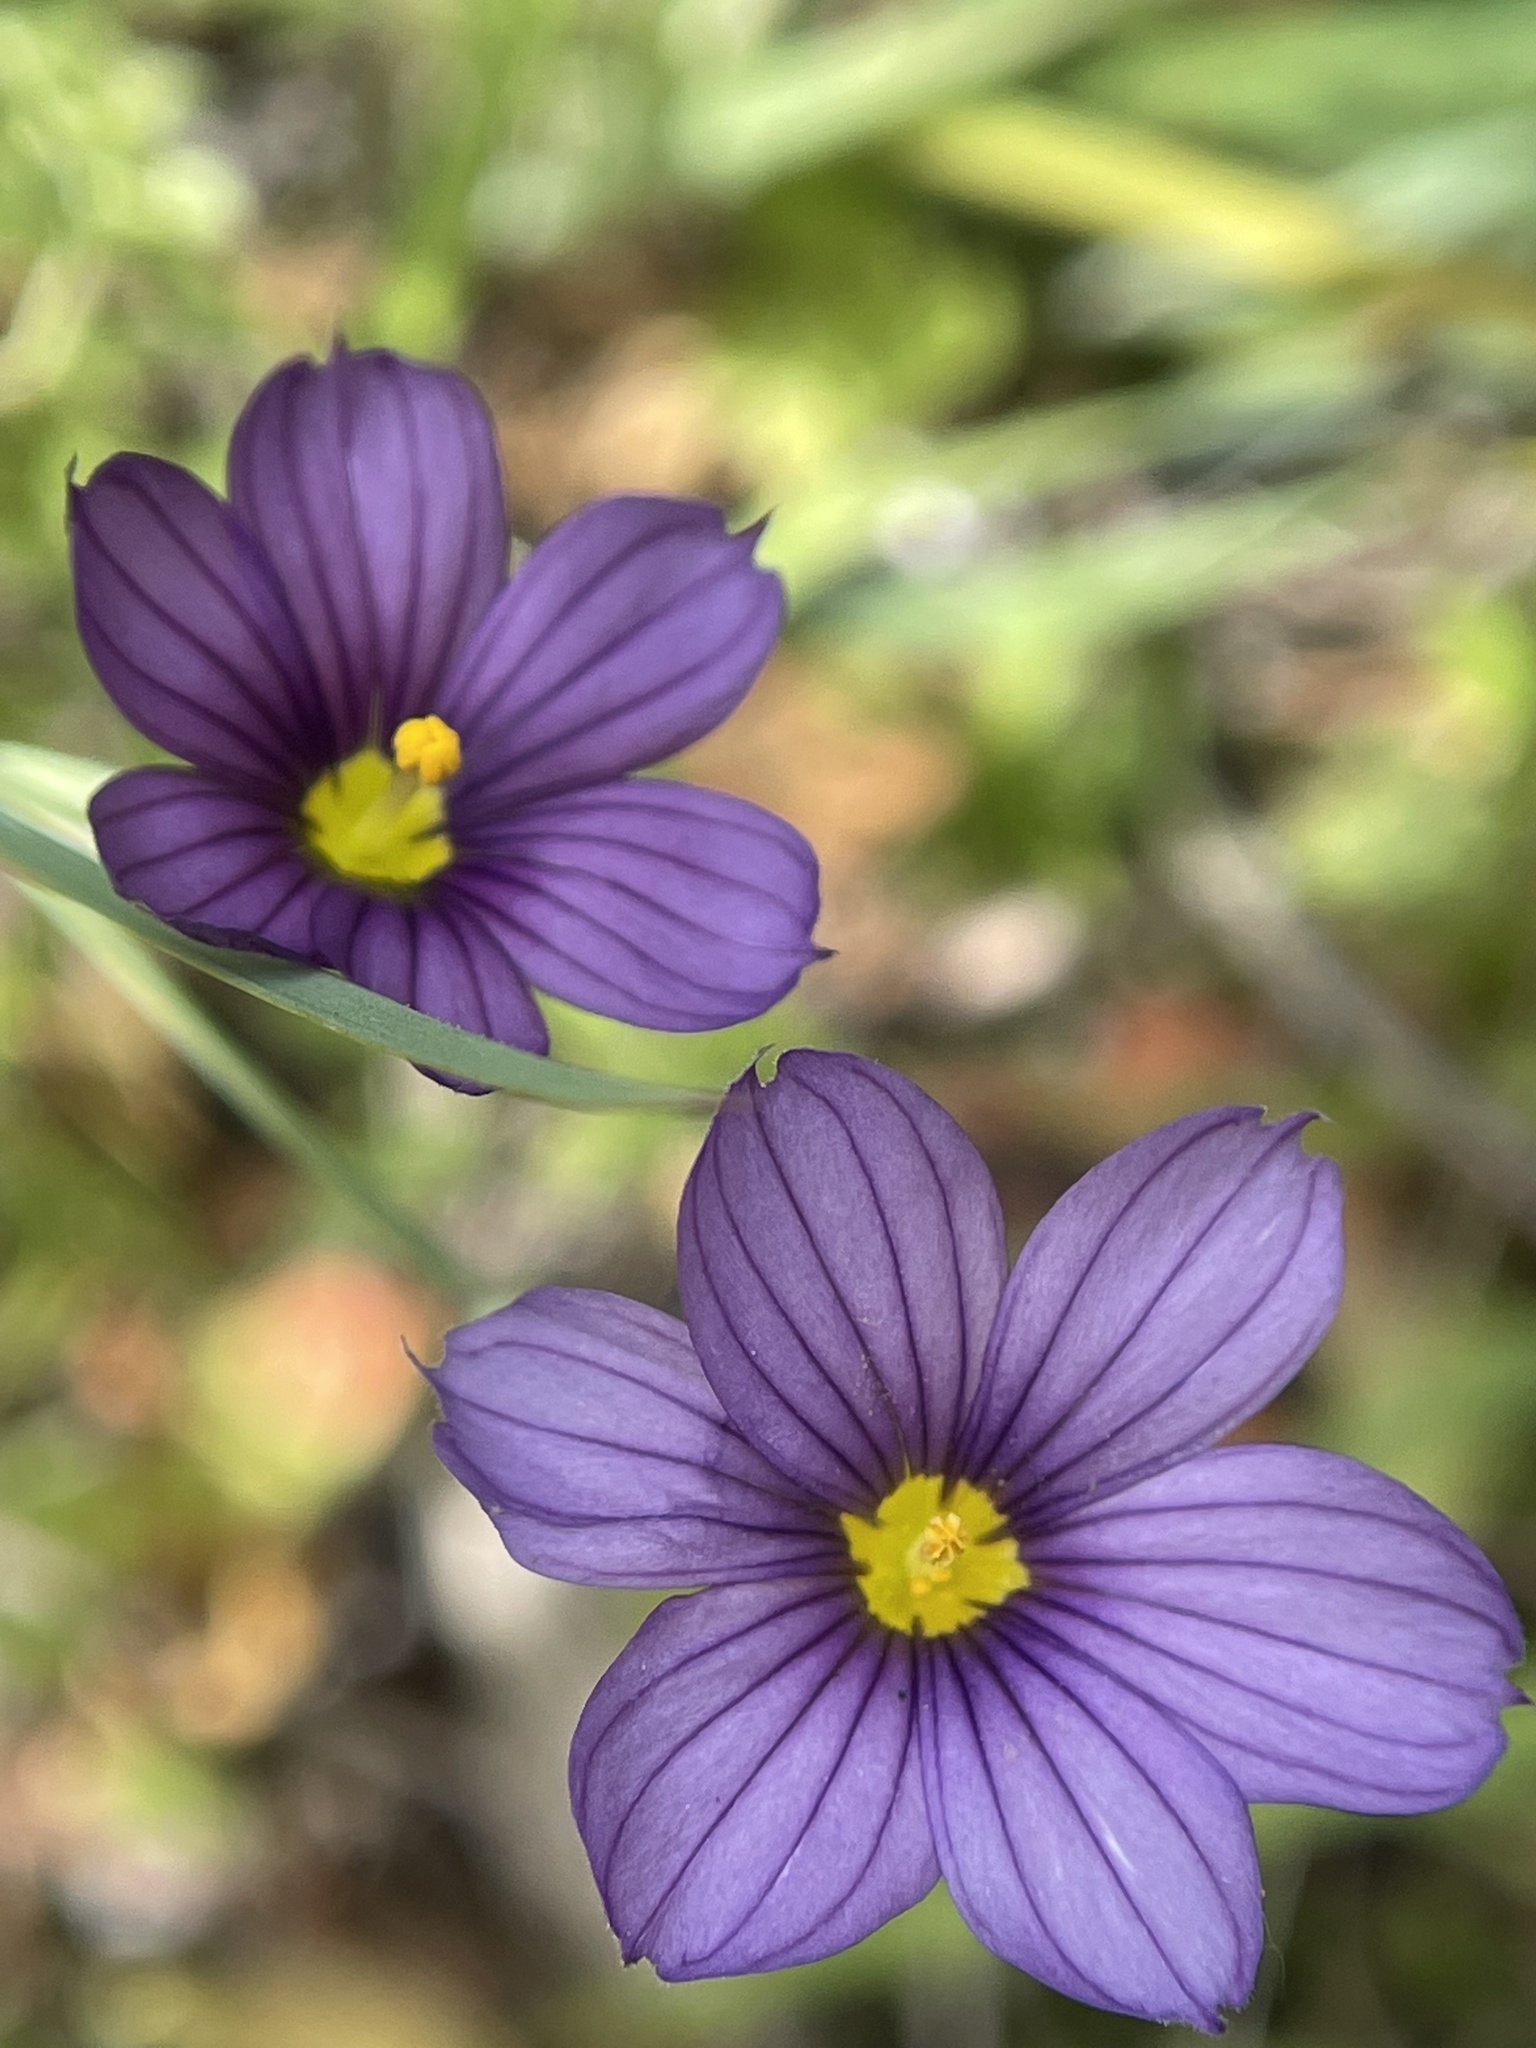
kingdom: Plantae
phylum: Tracheophyta
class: Liliopsida
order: Asparagales
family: Iridaceae
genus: Sisyrinchium
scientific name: Sisyrinchium bellum
